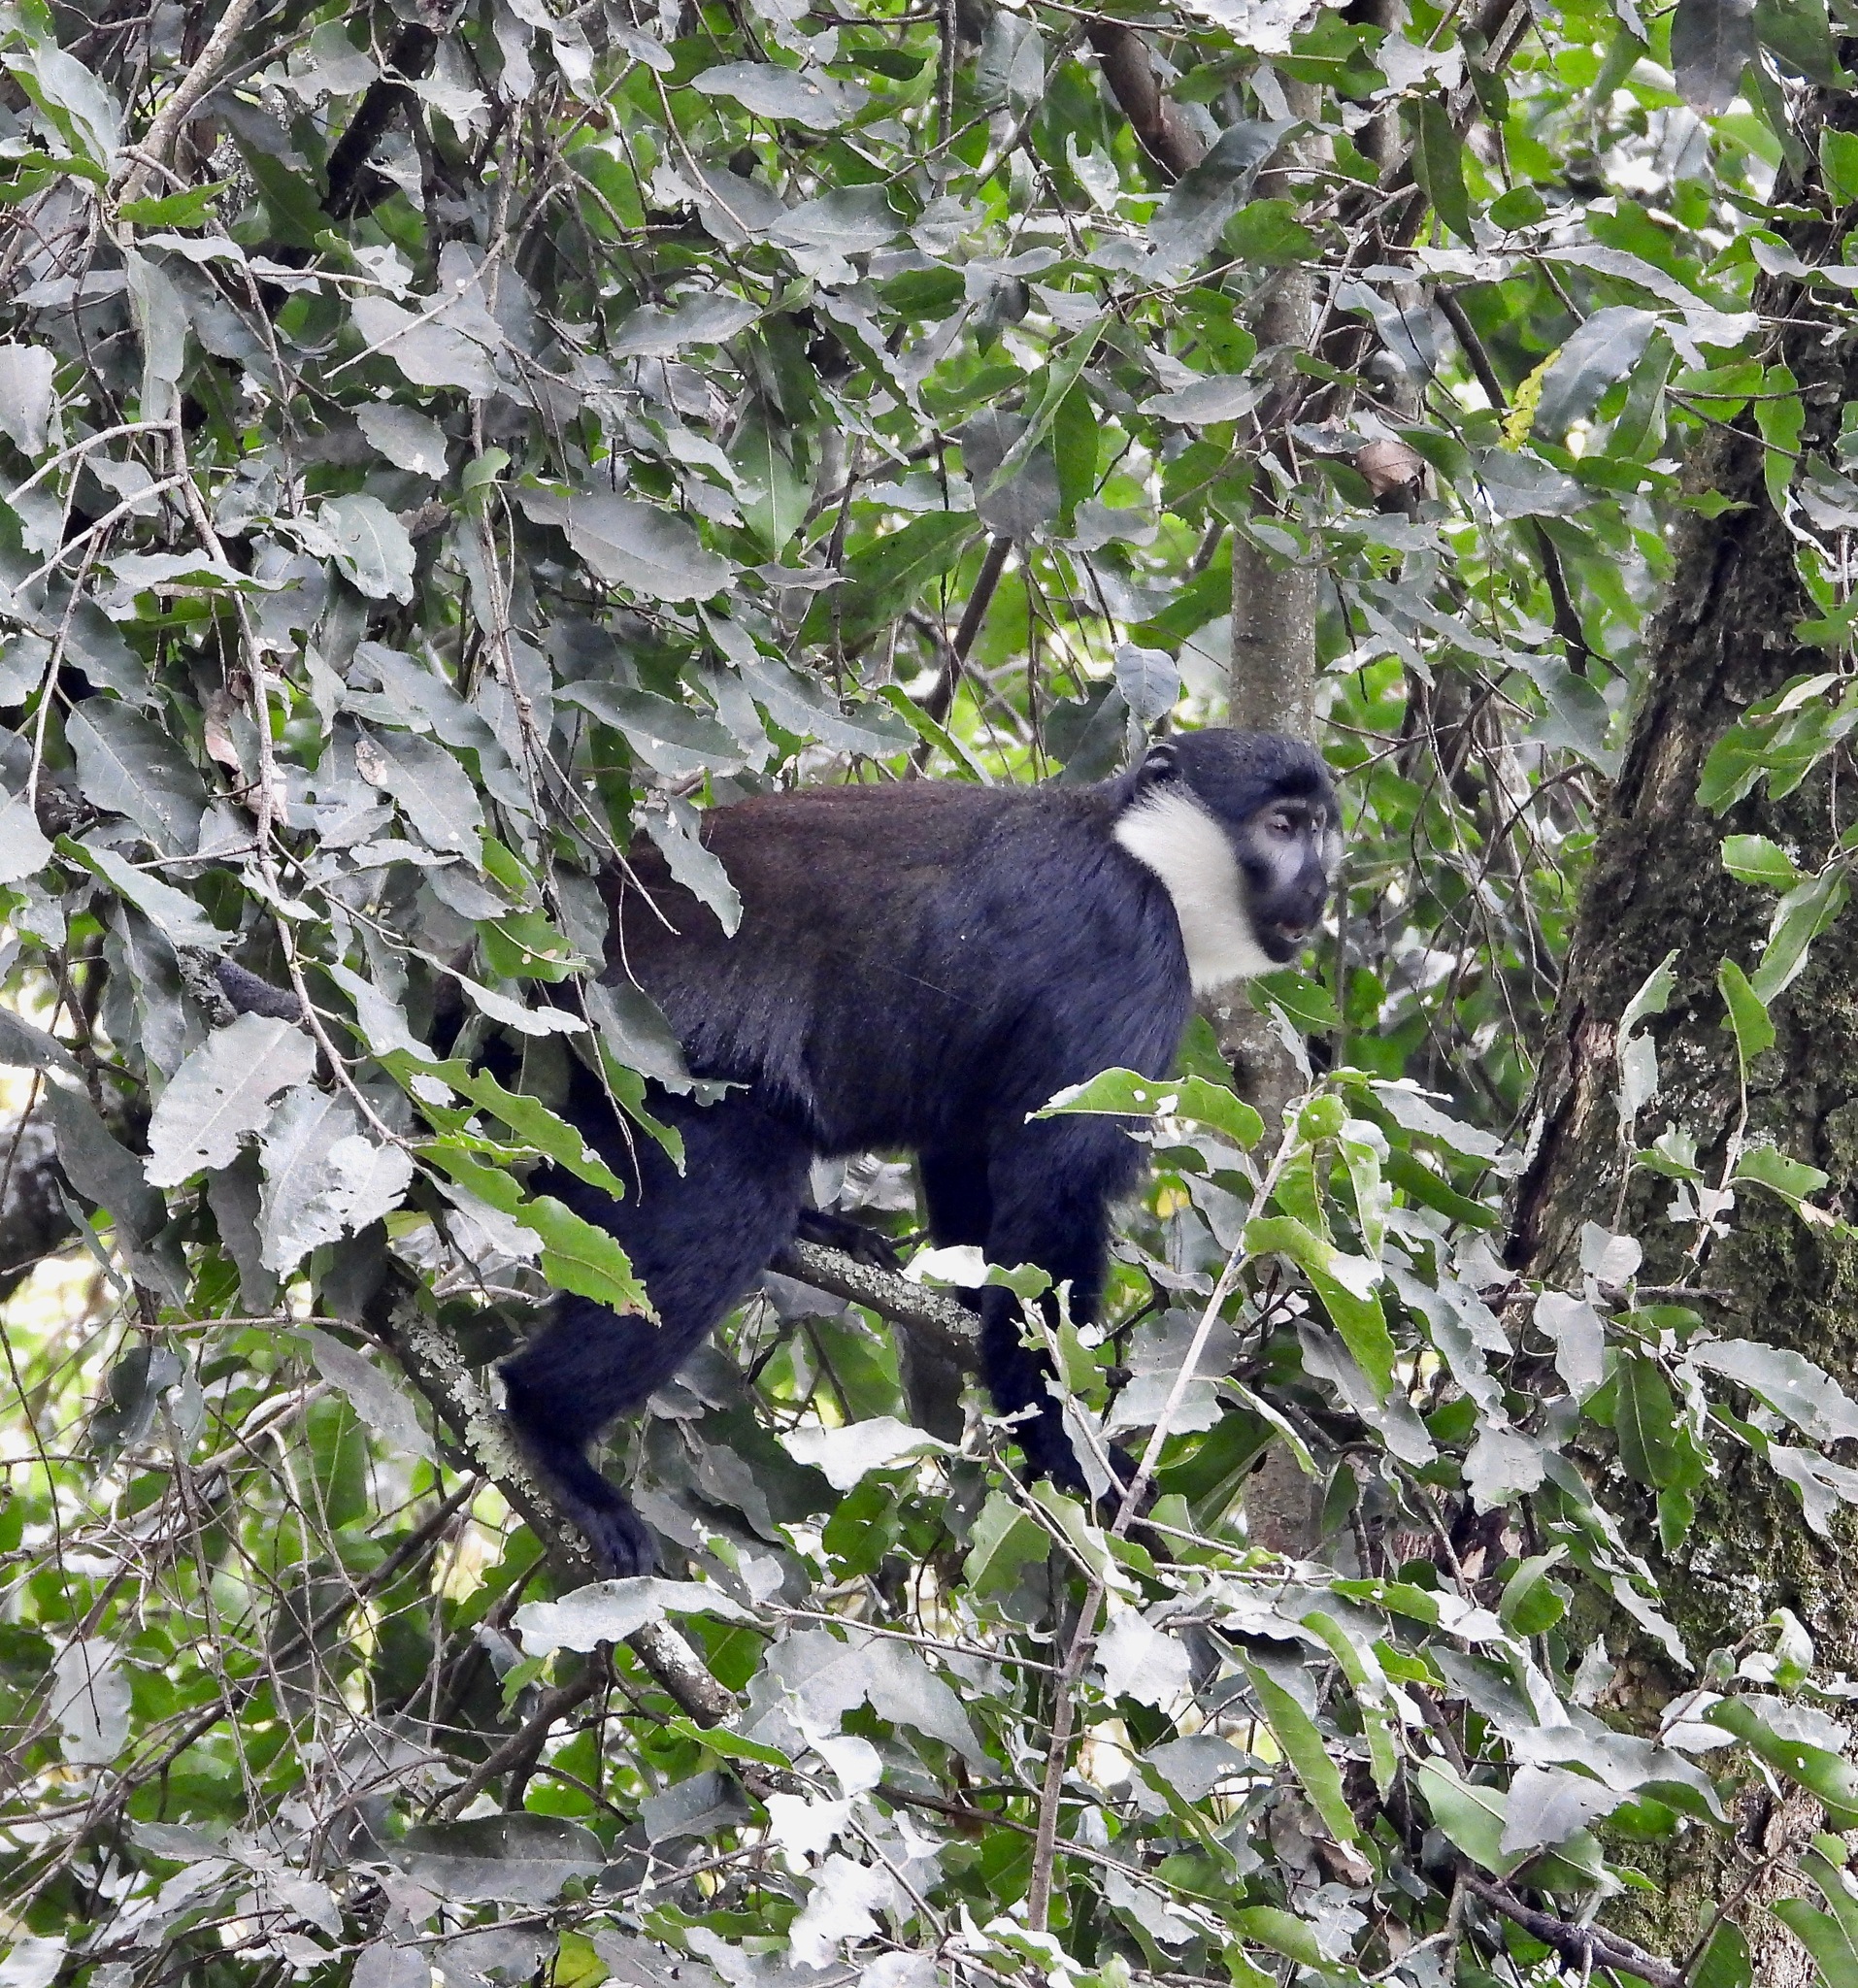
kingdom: Animalia
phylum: Chordata
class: Mammalia
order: Primates
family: Cercopithecidae
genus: Allochrocebus
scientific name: Allochrocebus lhoesti
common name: L'hoest's monkey
